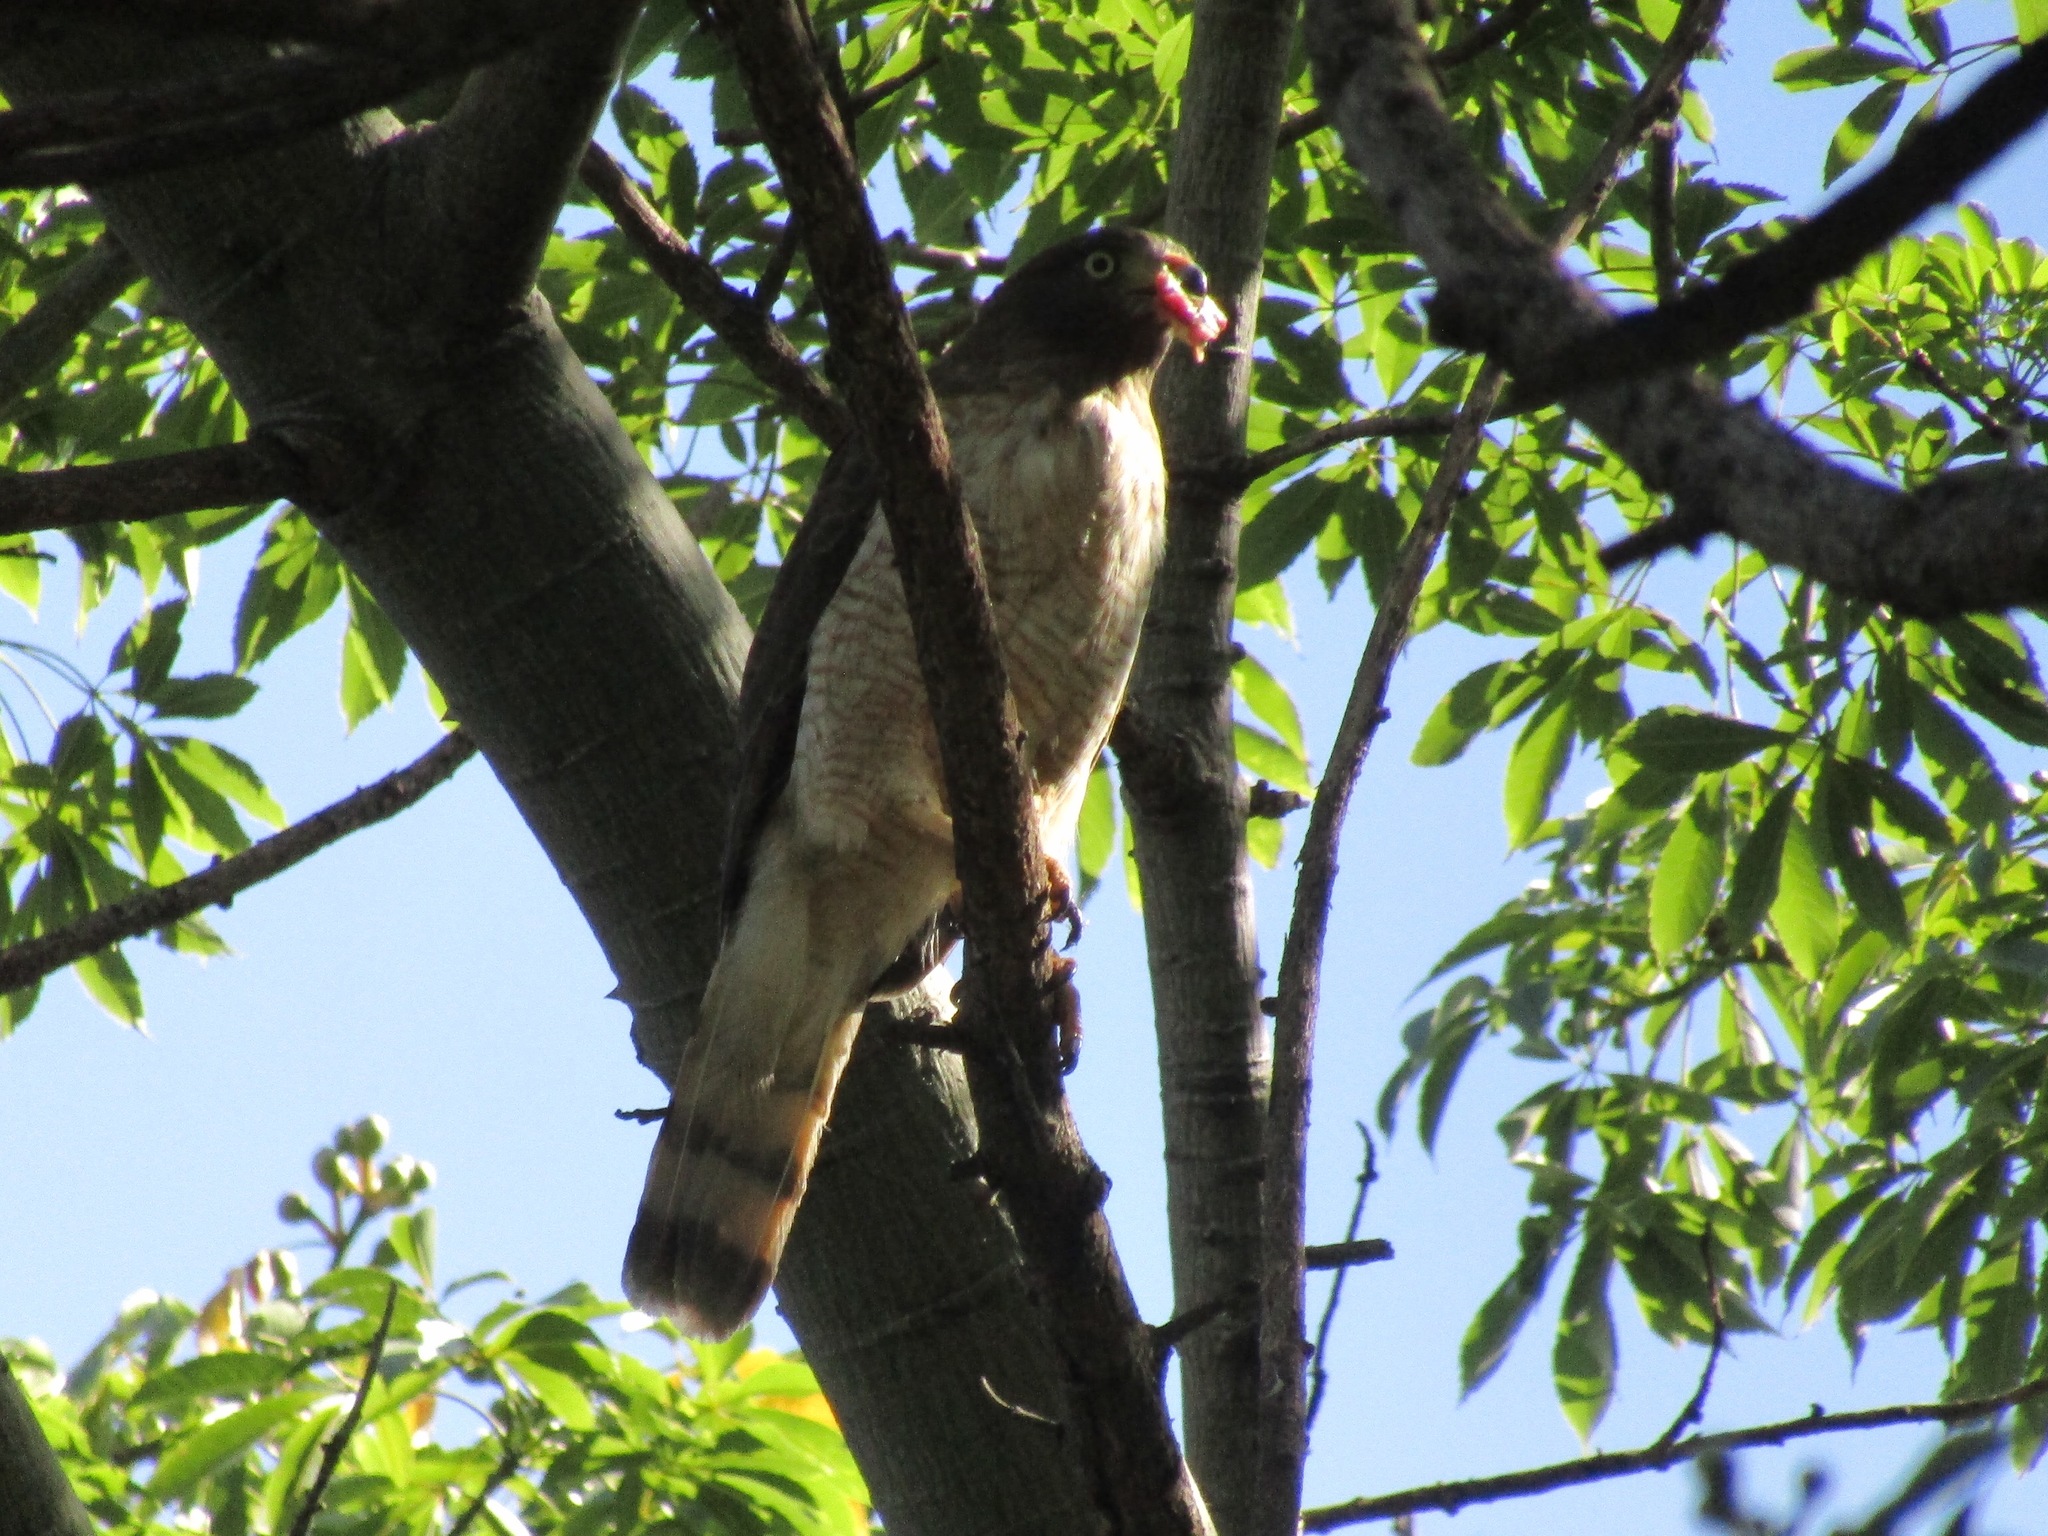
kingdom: Animalia
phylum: Chordata
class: Aves
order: Accipitriformes
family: Accipitridae
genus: Rupornis
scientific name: Rupornis magnirostris
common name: Roadside hawk
